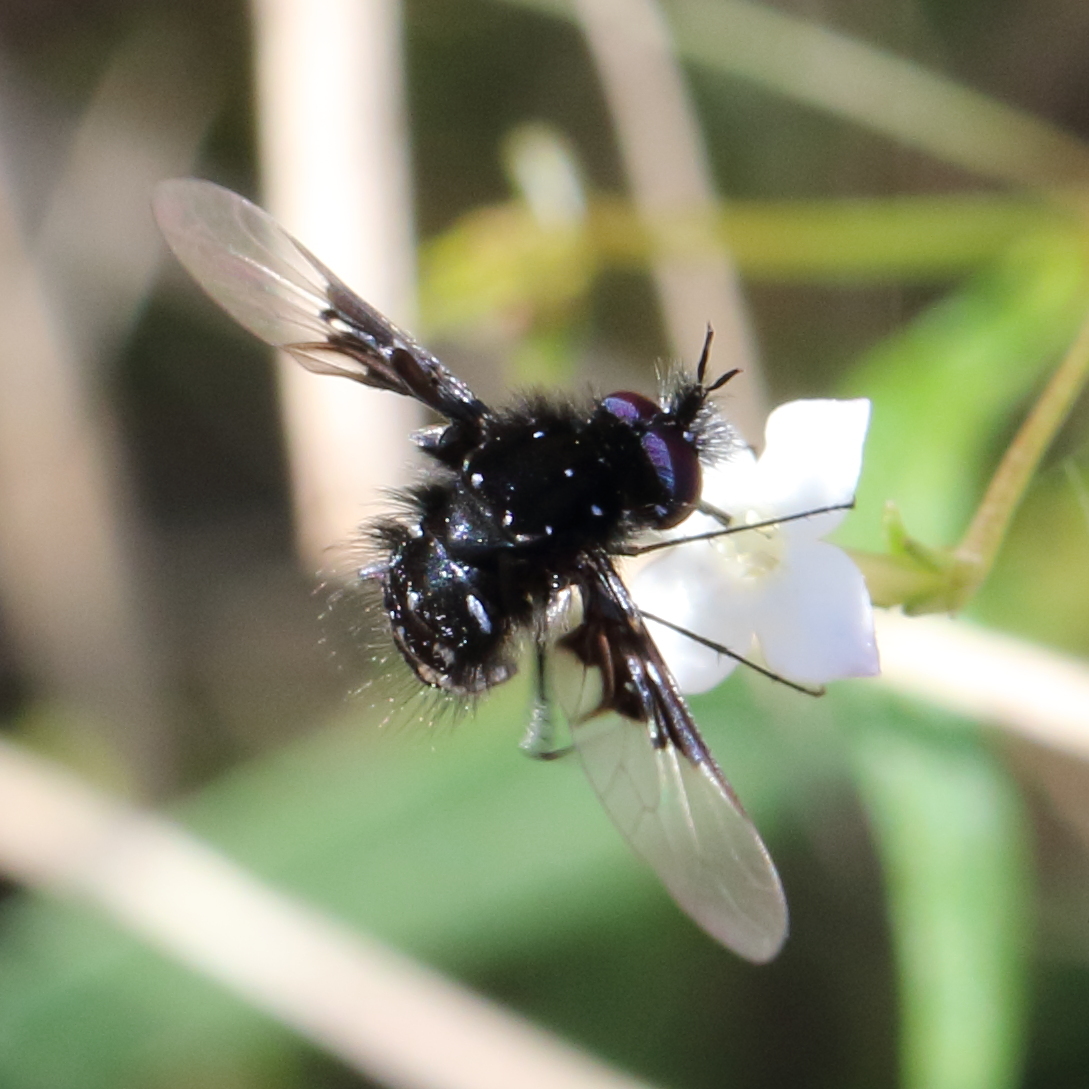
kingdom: Animalia
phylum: Arthropoda
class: Insecta
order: Diptera
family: Bombyliidae
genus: Bombylella
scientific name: Bombylella delicata
